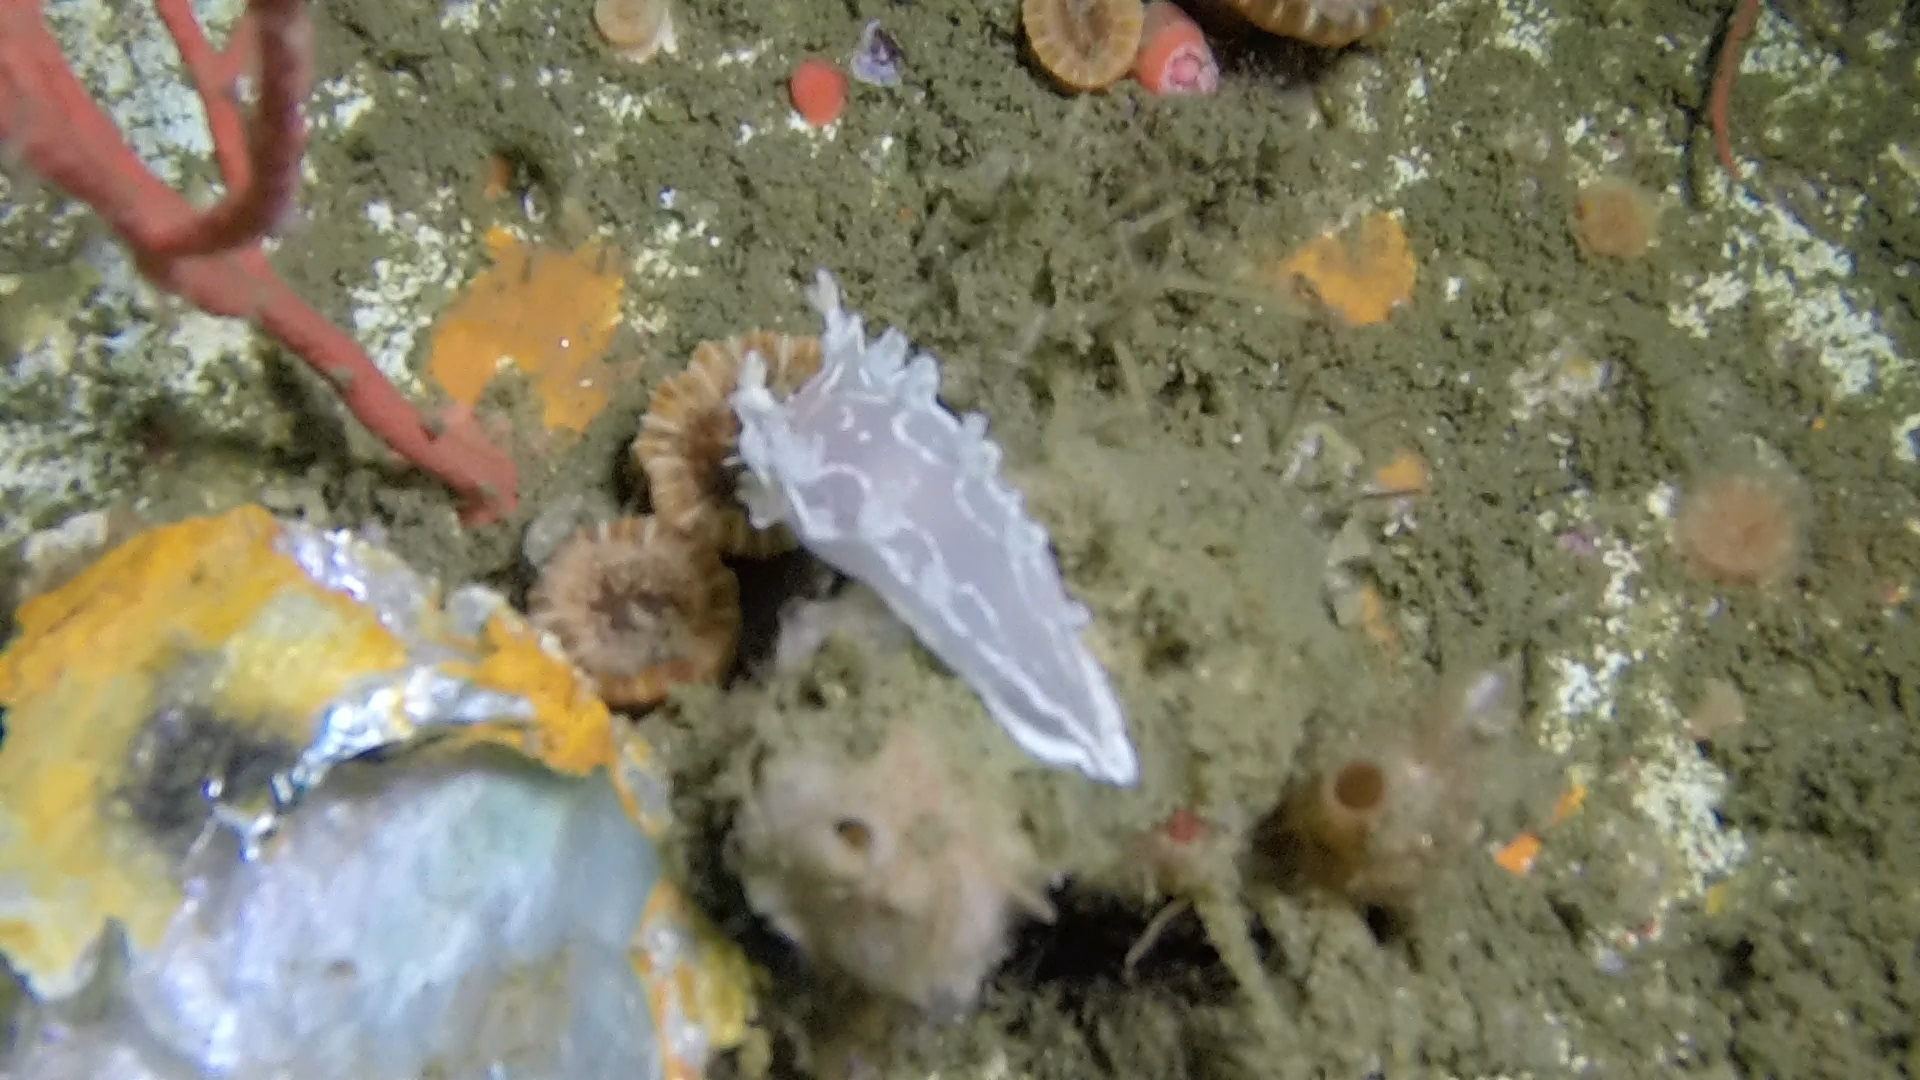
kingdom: Animalia
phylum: Mollusca
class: Gastropoda
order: Nudibranchia
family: Tritoniidae
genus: Tritonia
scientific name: Tritonia festiva
